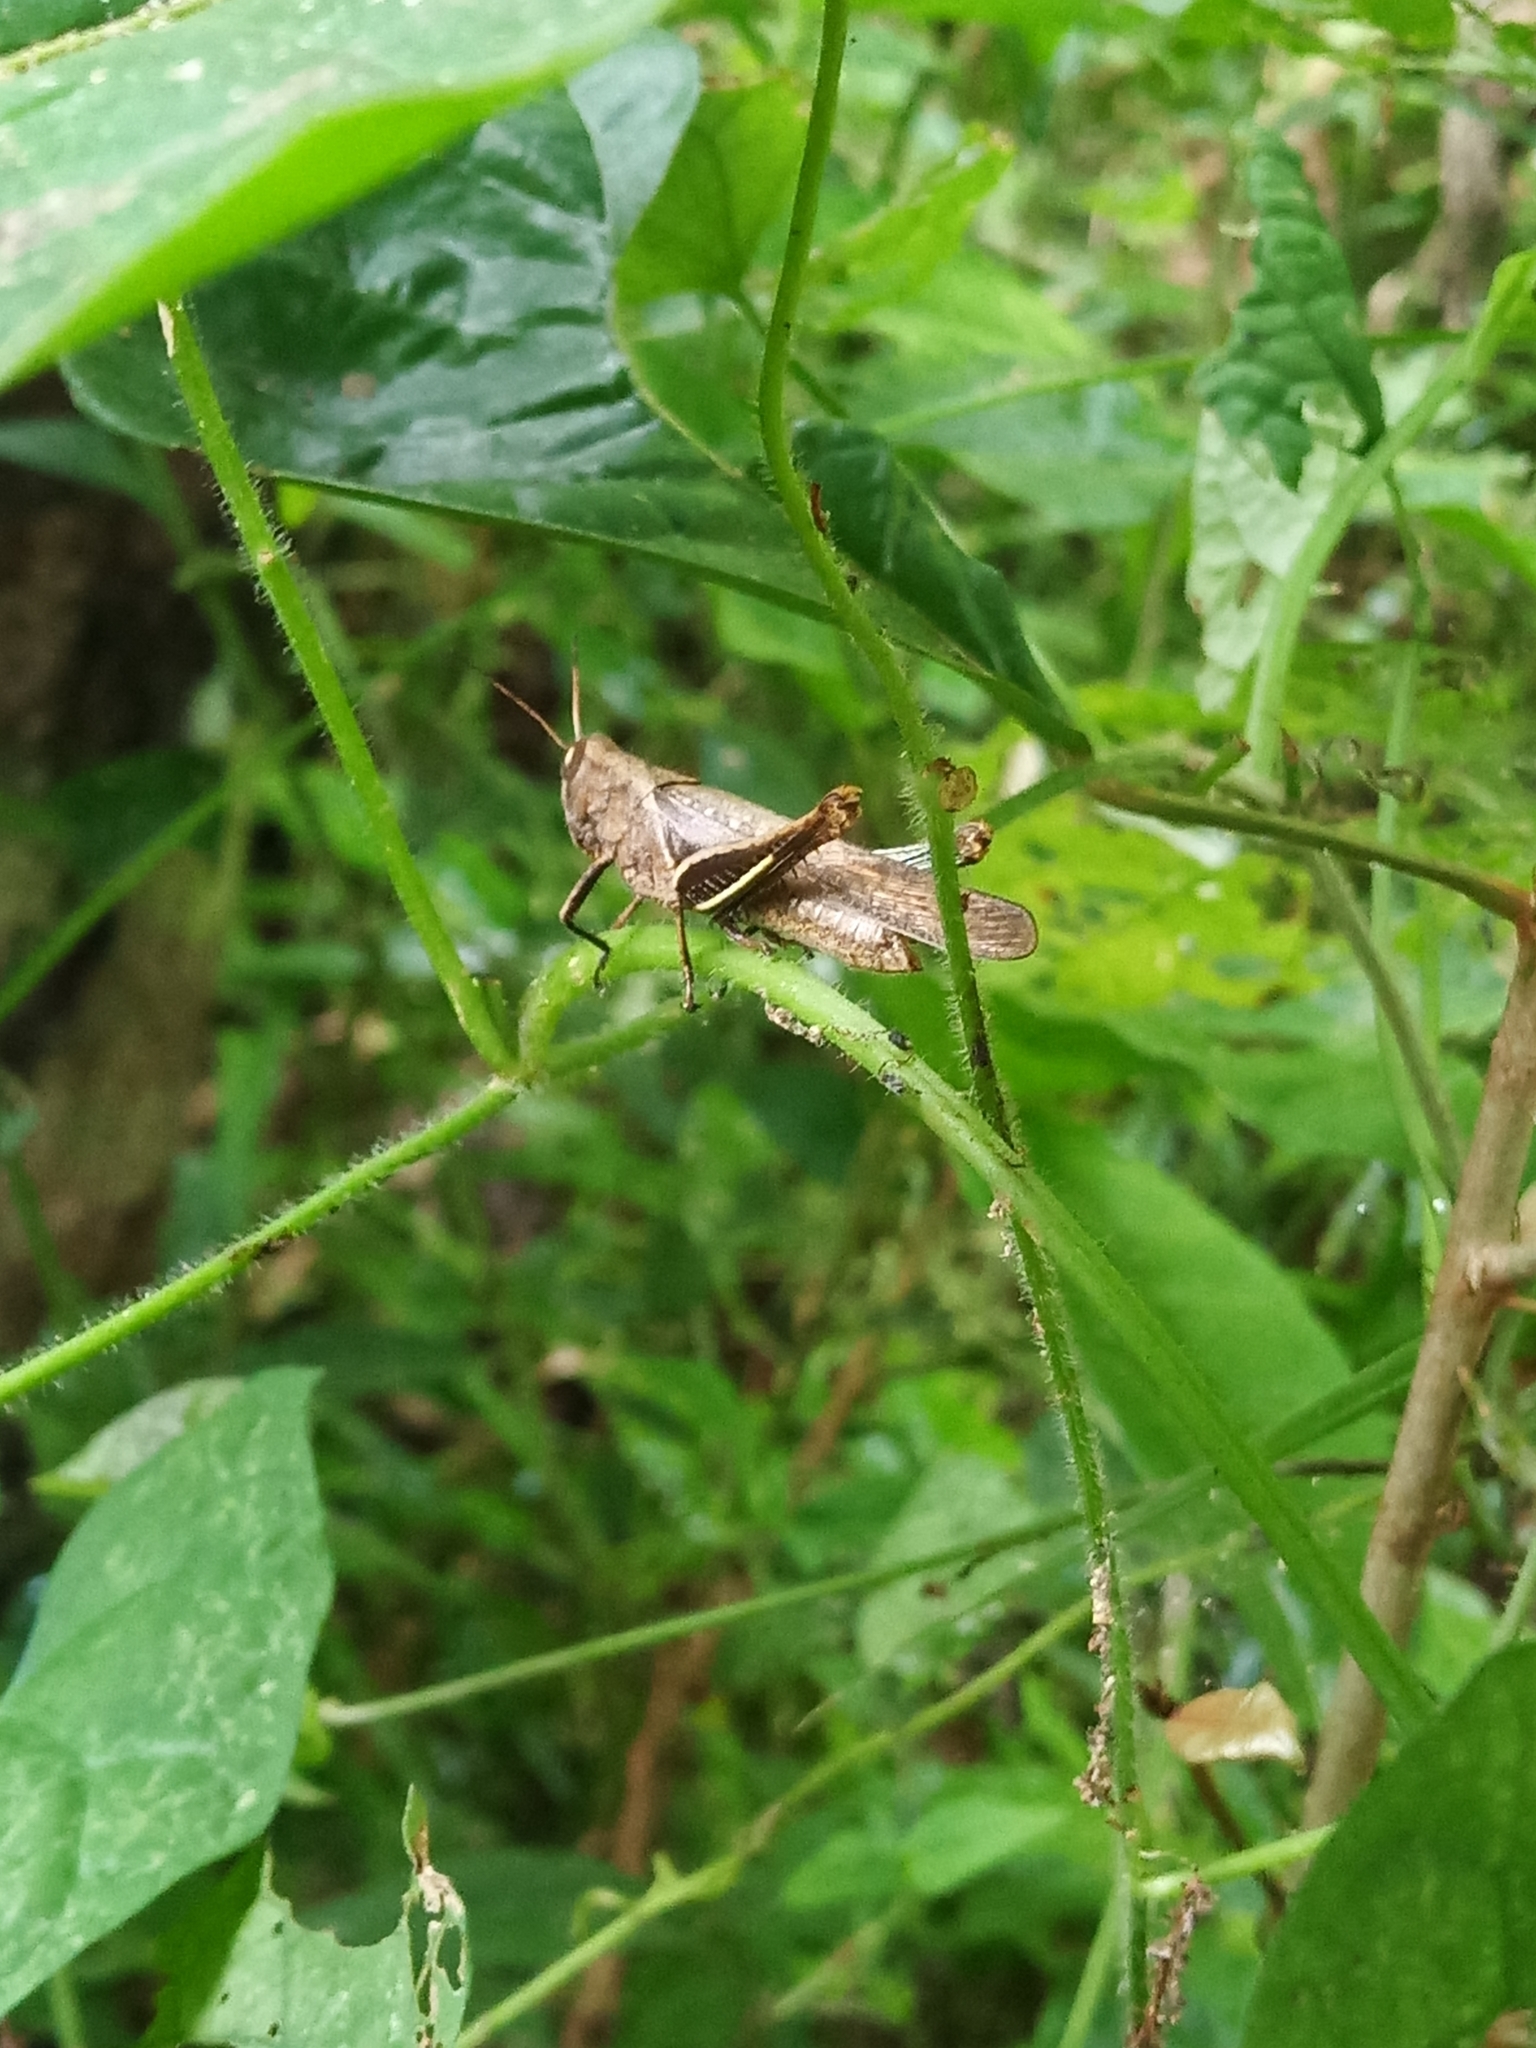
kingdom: Animalia
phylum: Arthropoda
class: Insecta
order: Orthoptera
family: Acrididae
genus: Abracris
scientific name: Abracris flavolineata
